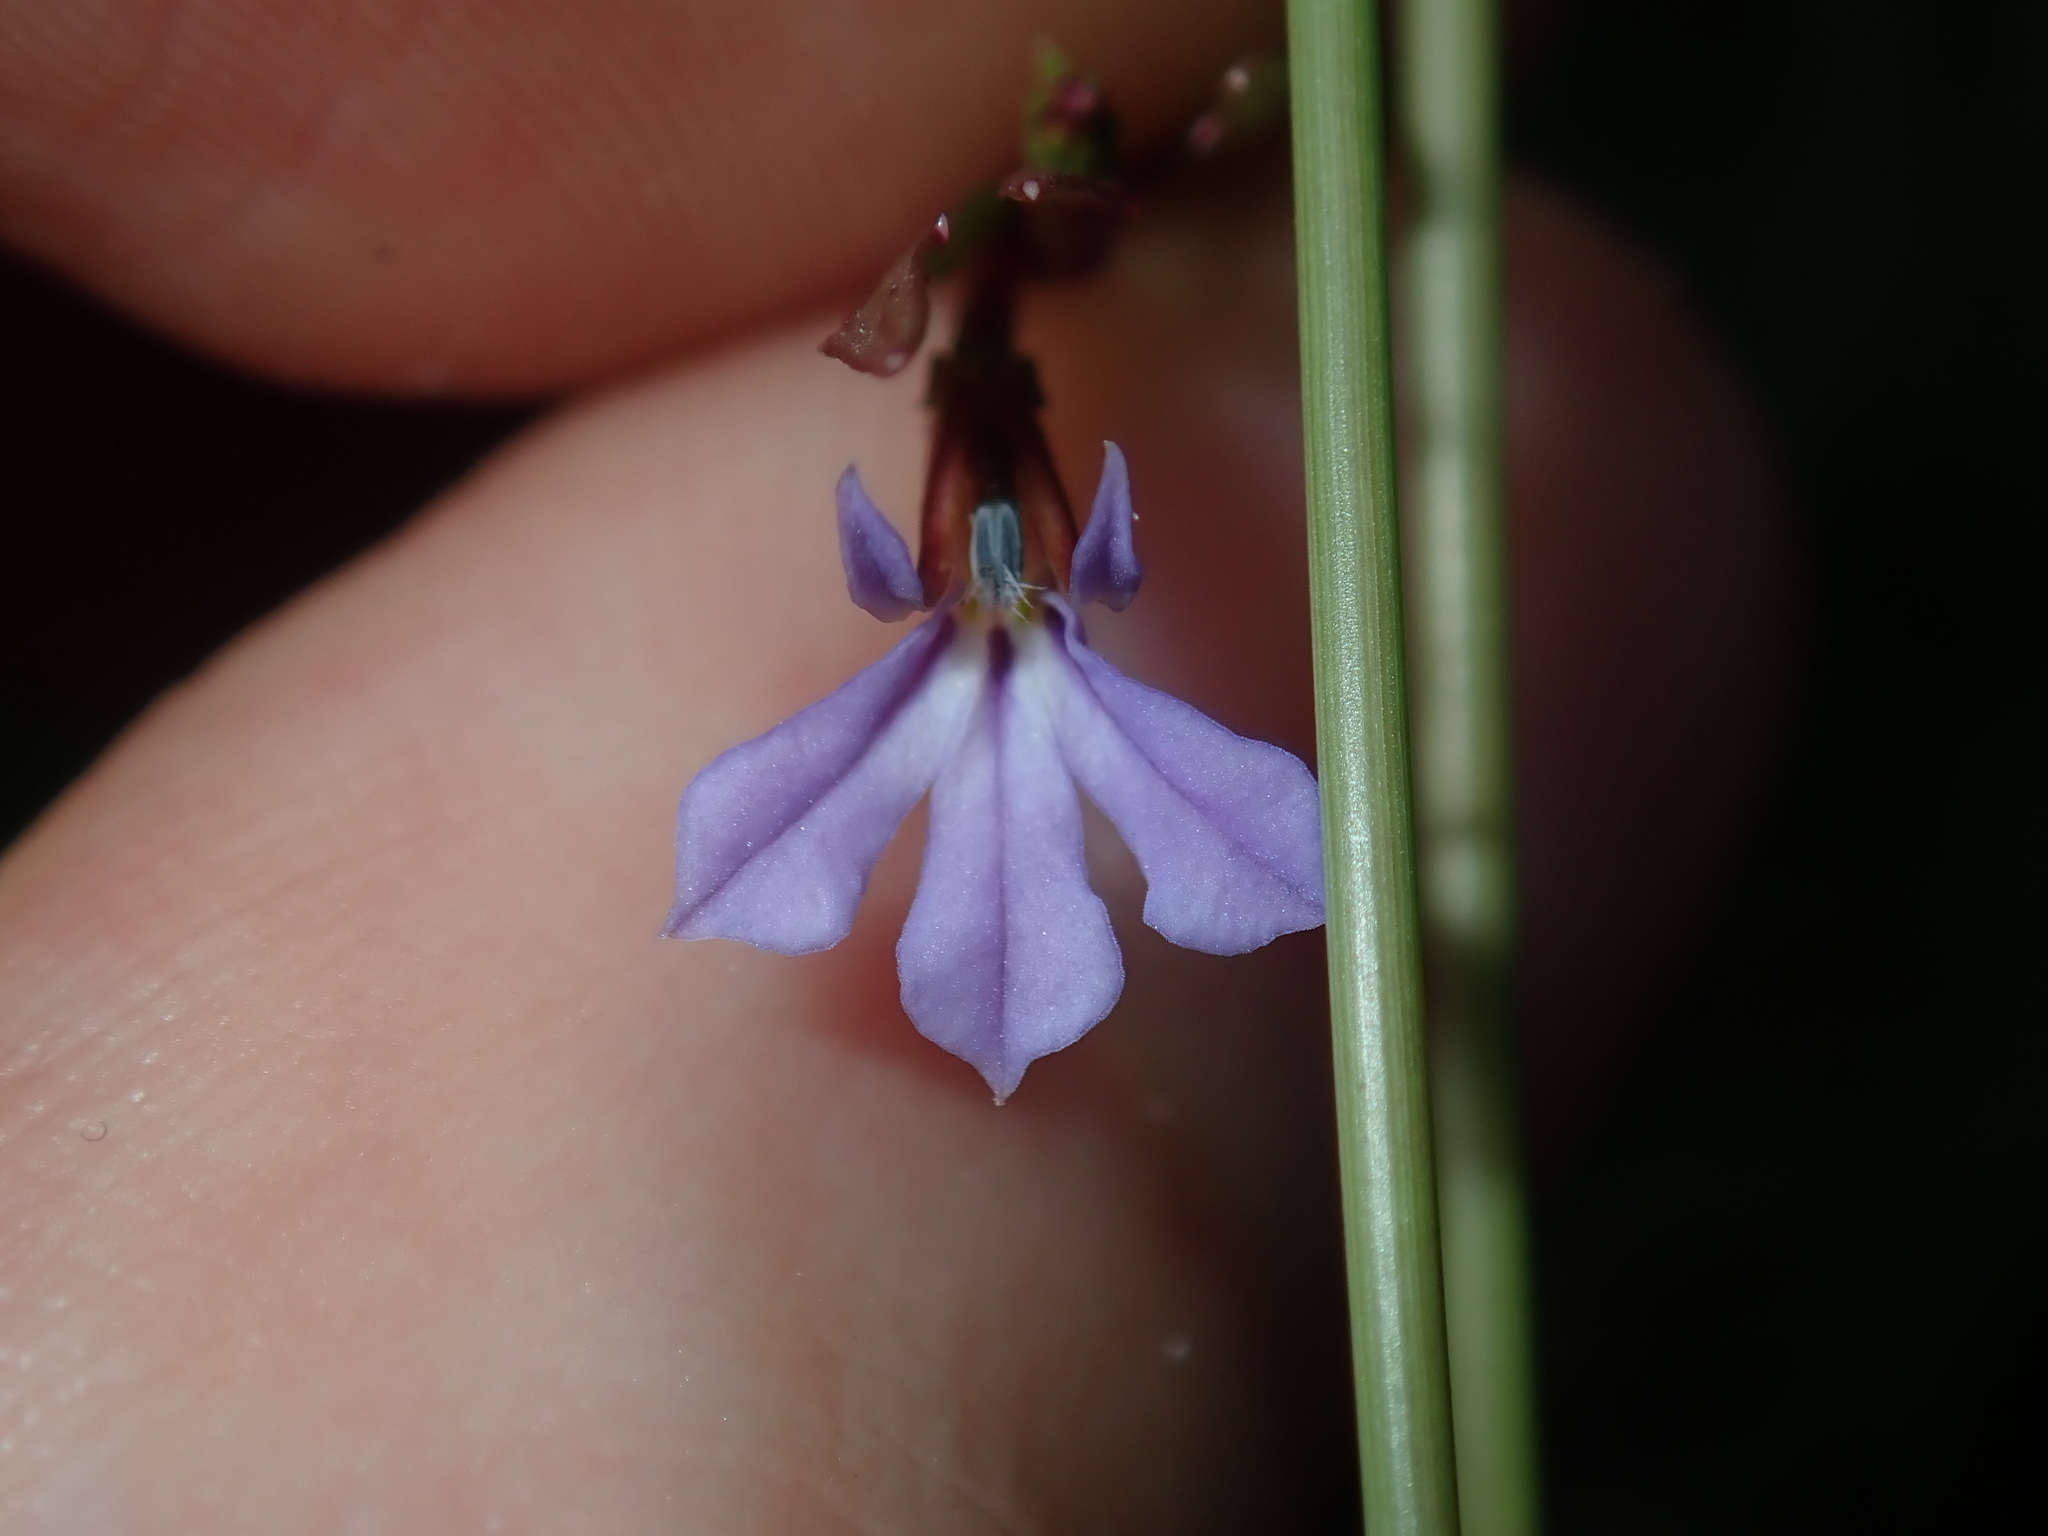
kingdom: Plantae
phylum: Tracheophyta
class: Magnoliopsida
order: Asterales
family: Campanulaceae
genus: Lobelia
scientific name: Lobelia anceps
